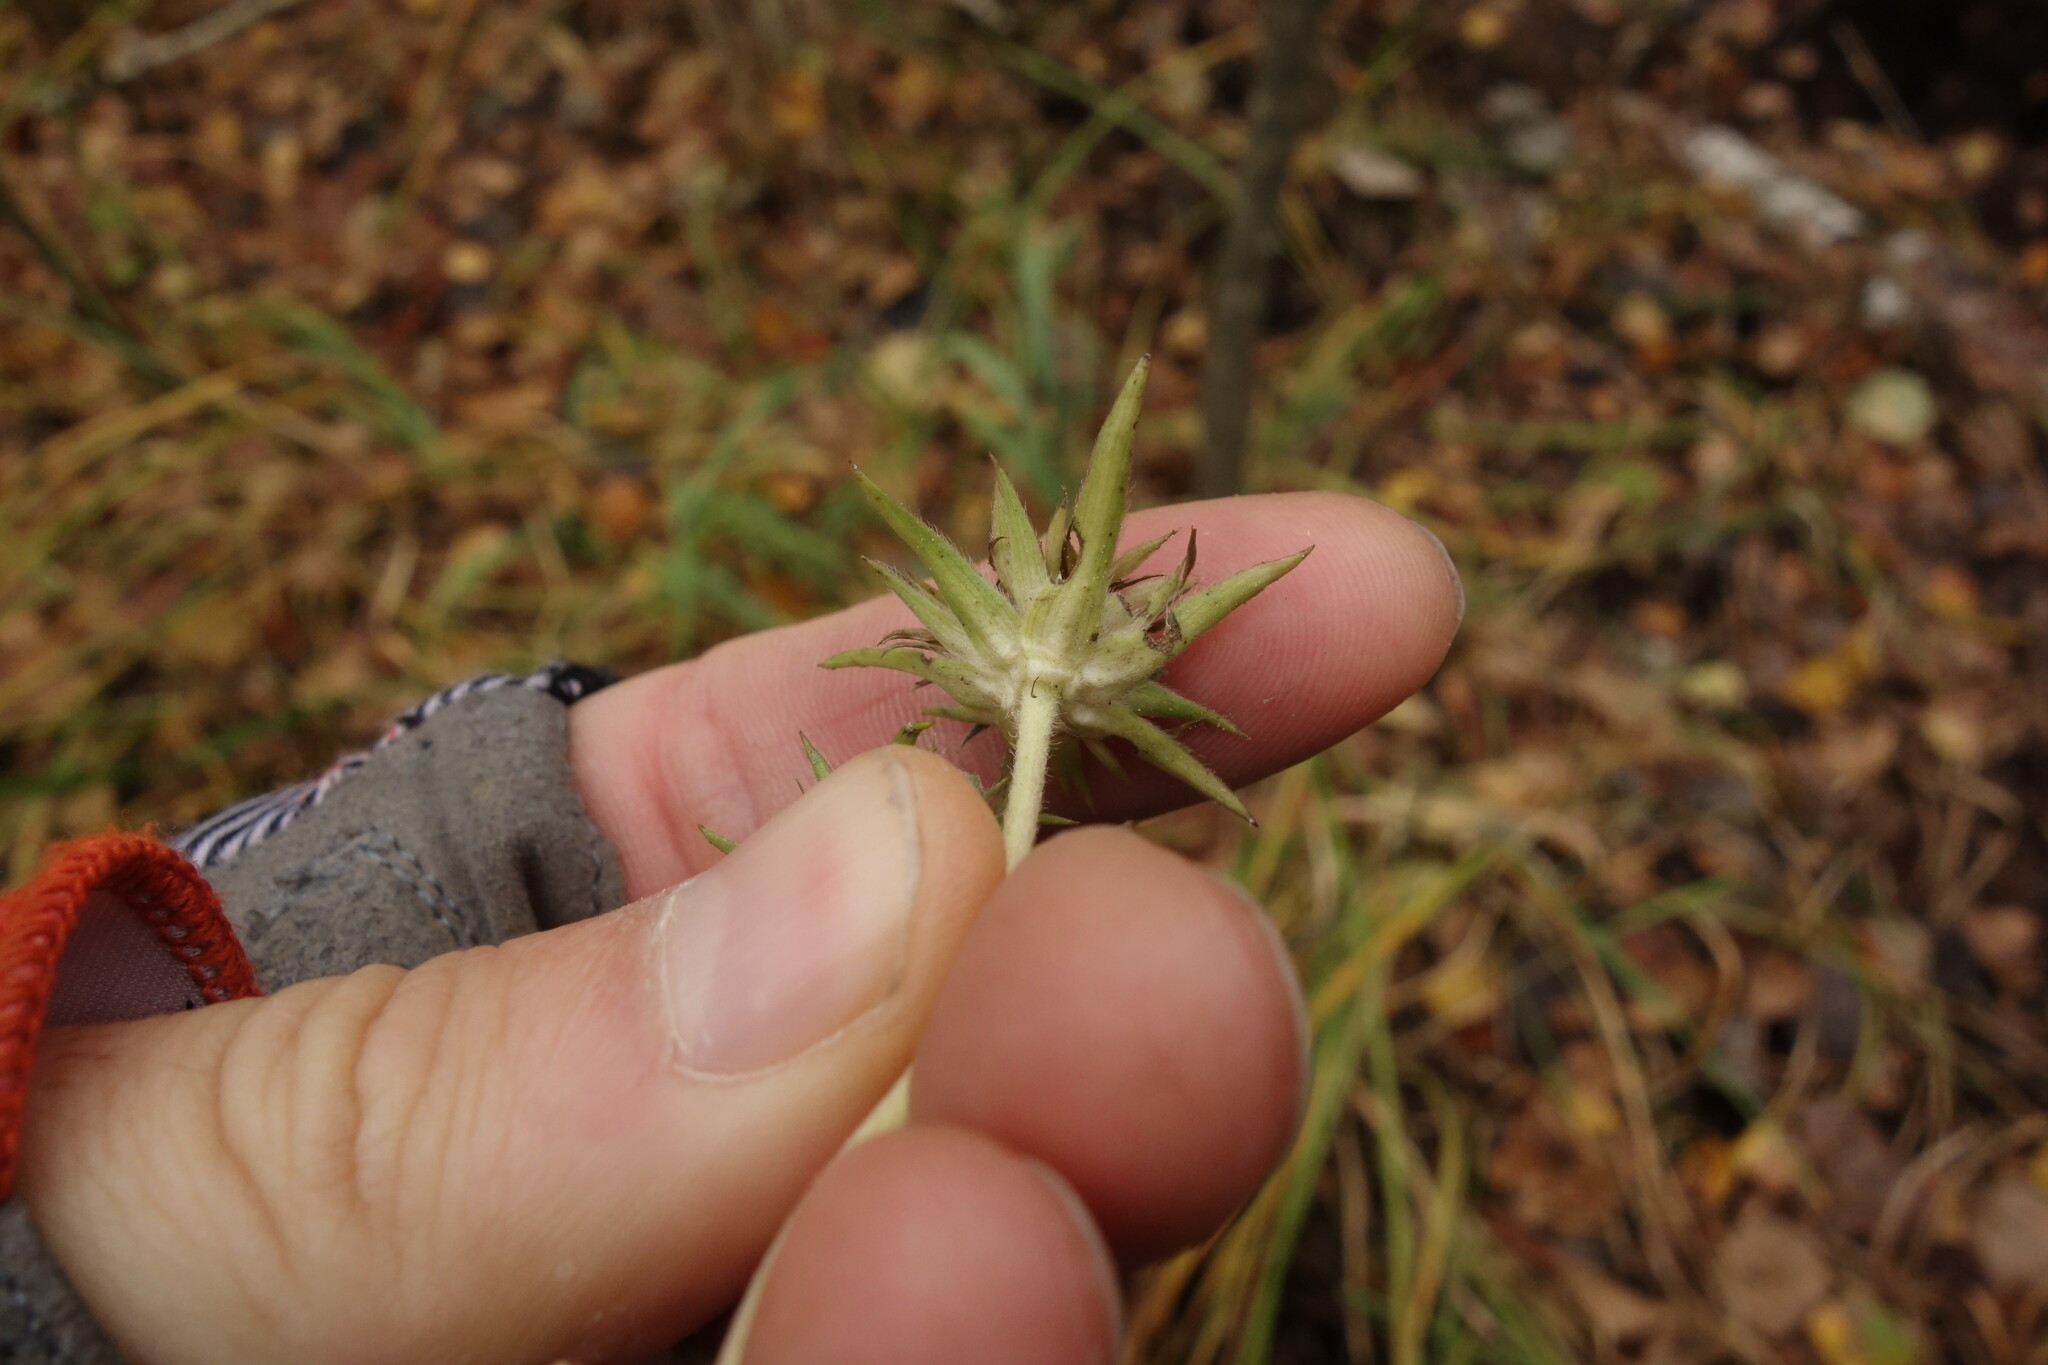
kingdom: Plantae
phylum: Tracheophyta
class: Magnoliopsida
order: Dipsacales
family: Caprifoliaceae
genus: Succisa
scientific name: Succisa pratensis
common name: Devil's-bit
